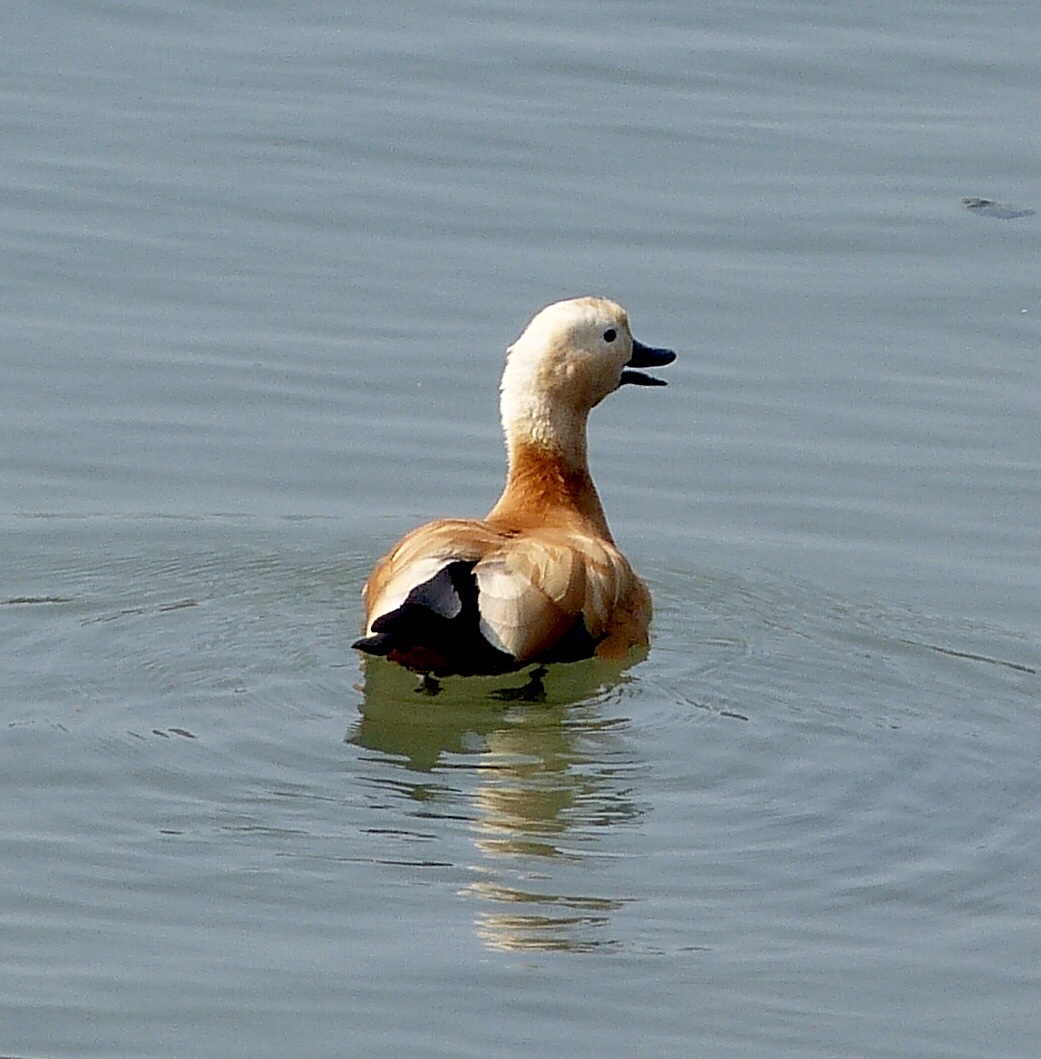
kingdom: Animalia
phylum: Chordata
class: Aves
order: Anseriformes
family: Anatidae
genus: Tadorna
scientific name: Tadorna ferruginea
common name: Ruddy shelduck
